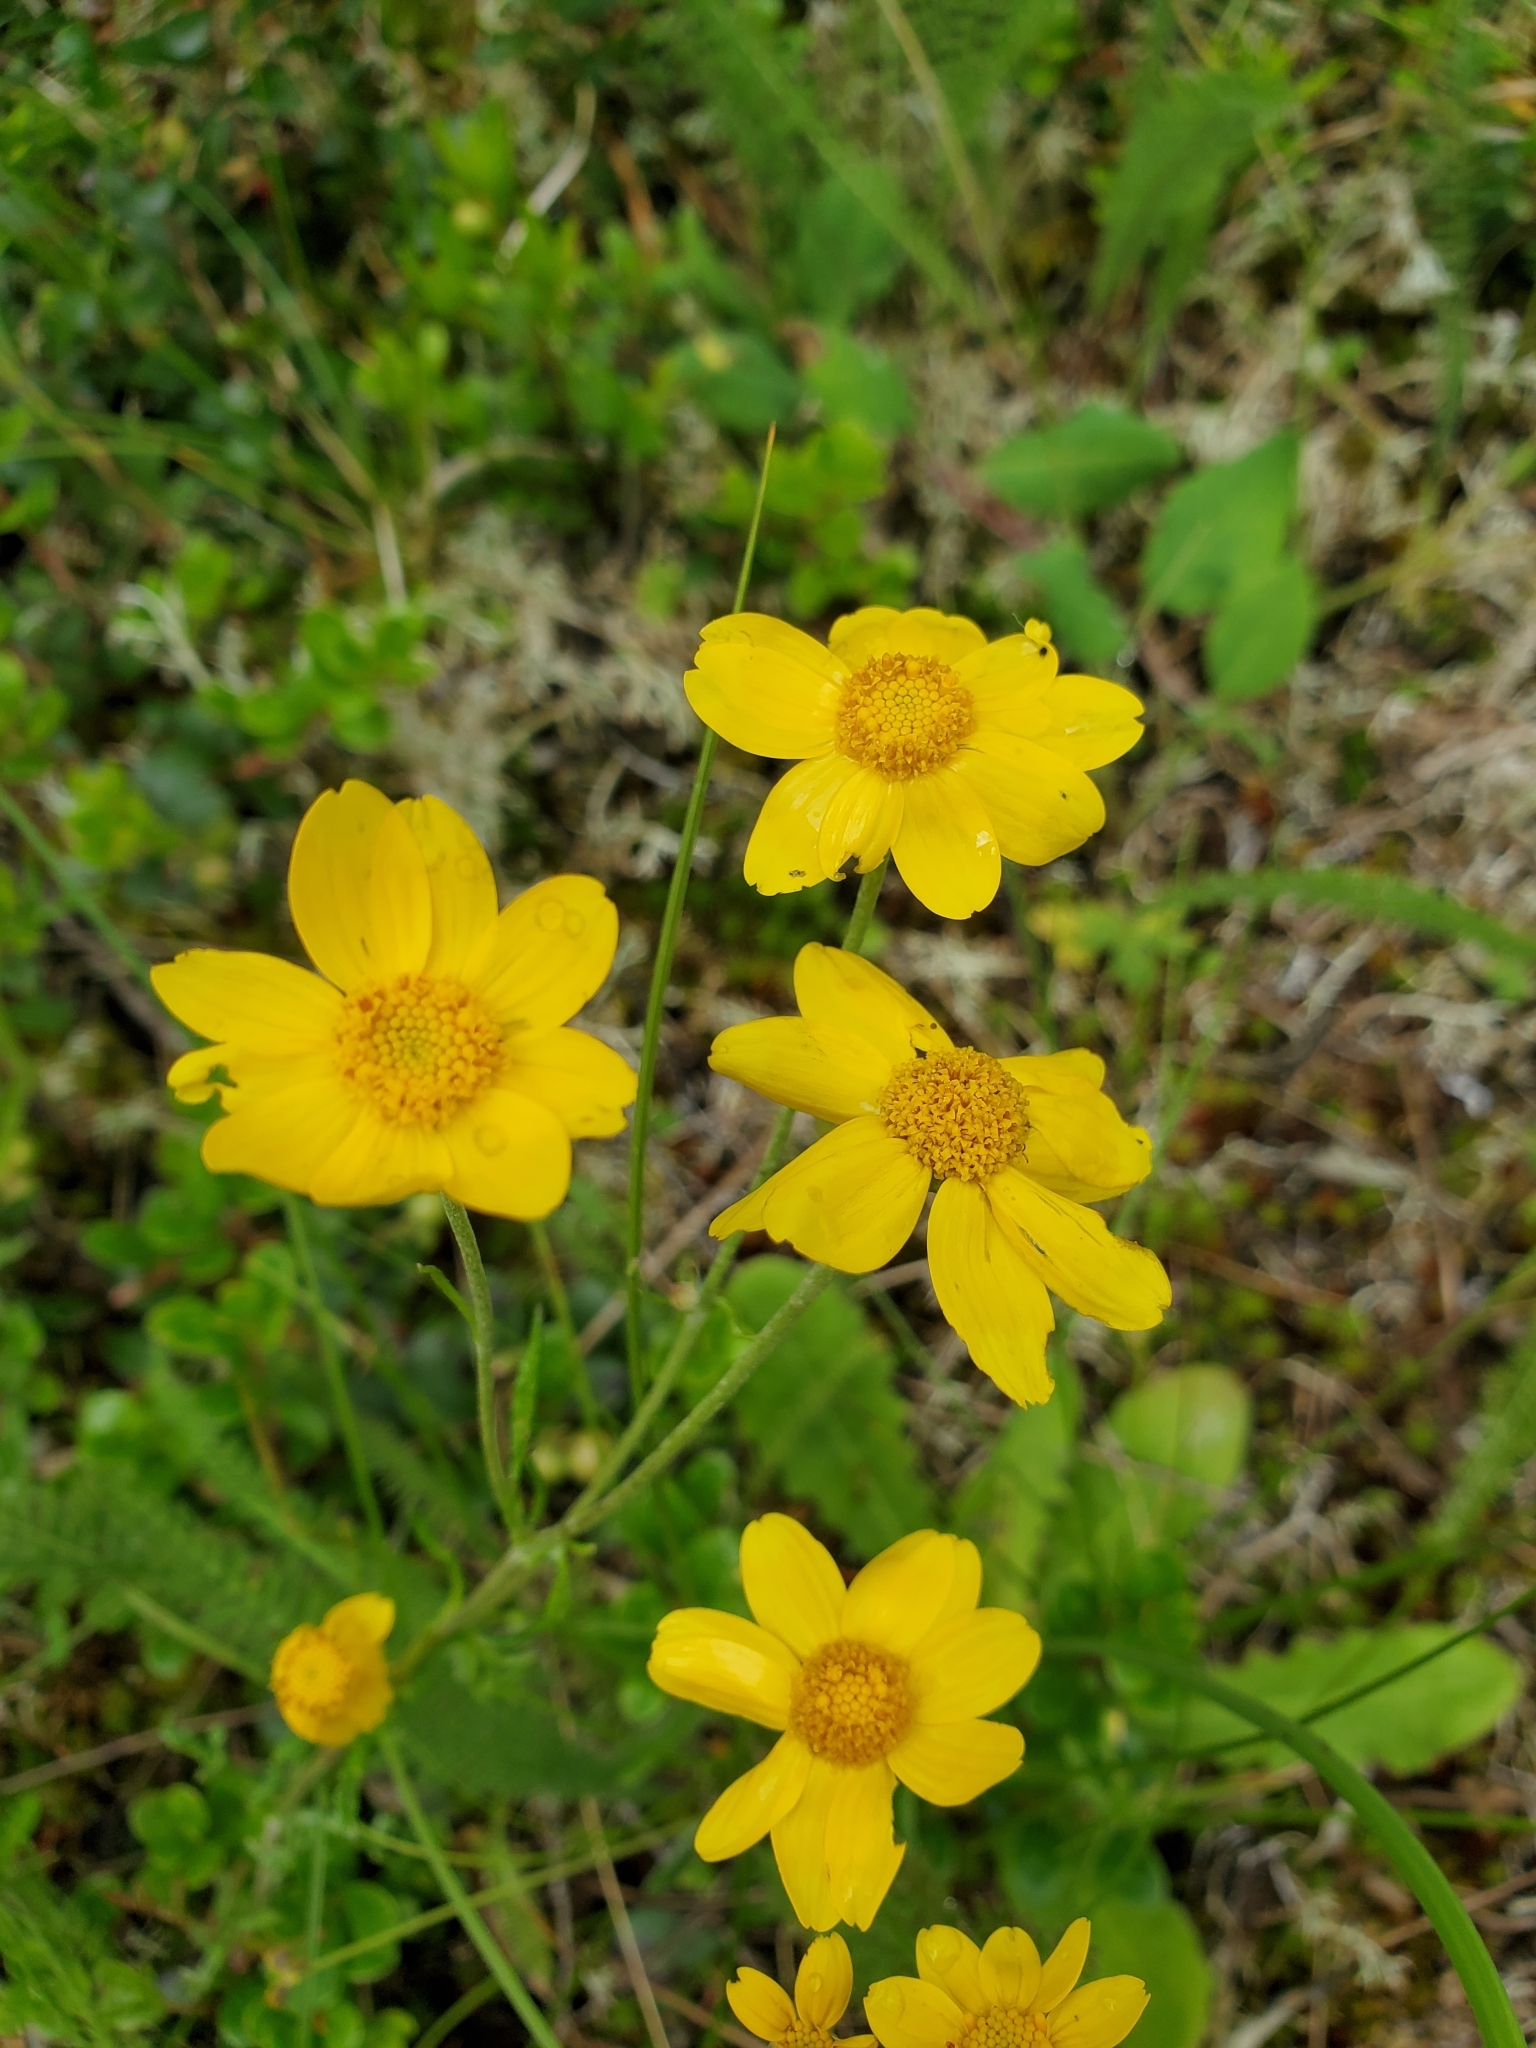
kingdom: Plantae
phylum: Tracheophyta
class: Magnoliopsida
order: Asterales
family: Asteraceae
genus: Eriophyllum
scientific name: Eriophyllum lanatum
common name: Common woolly-sunflower
